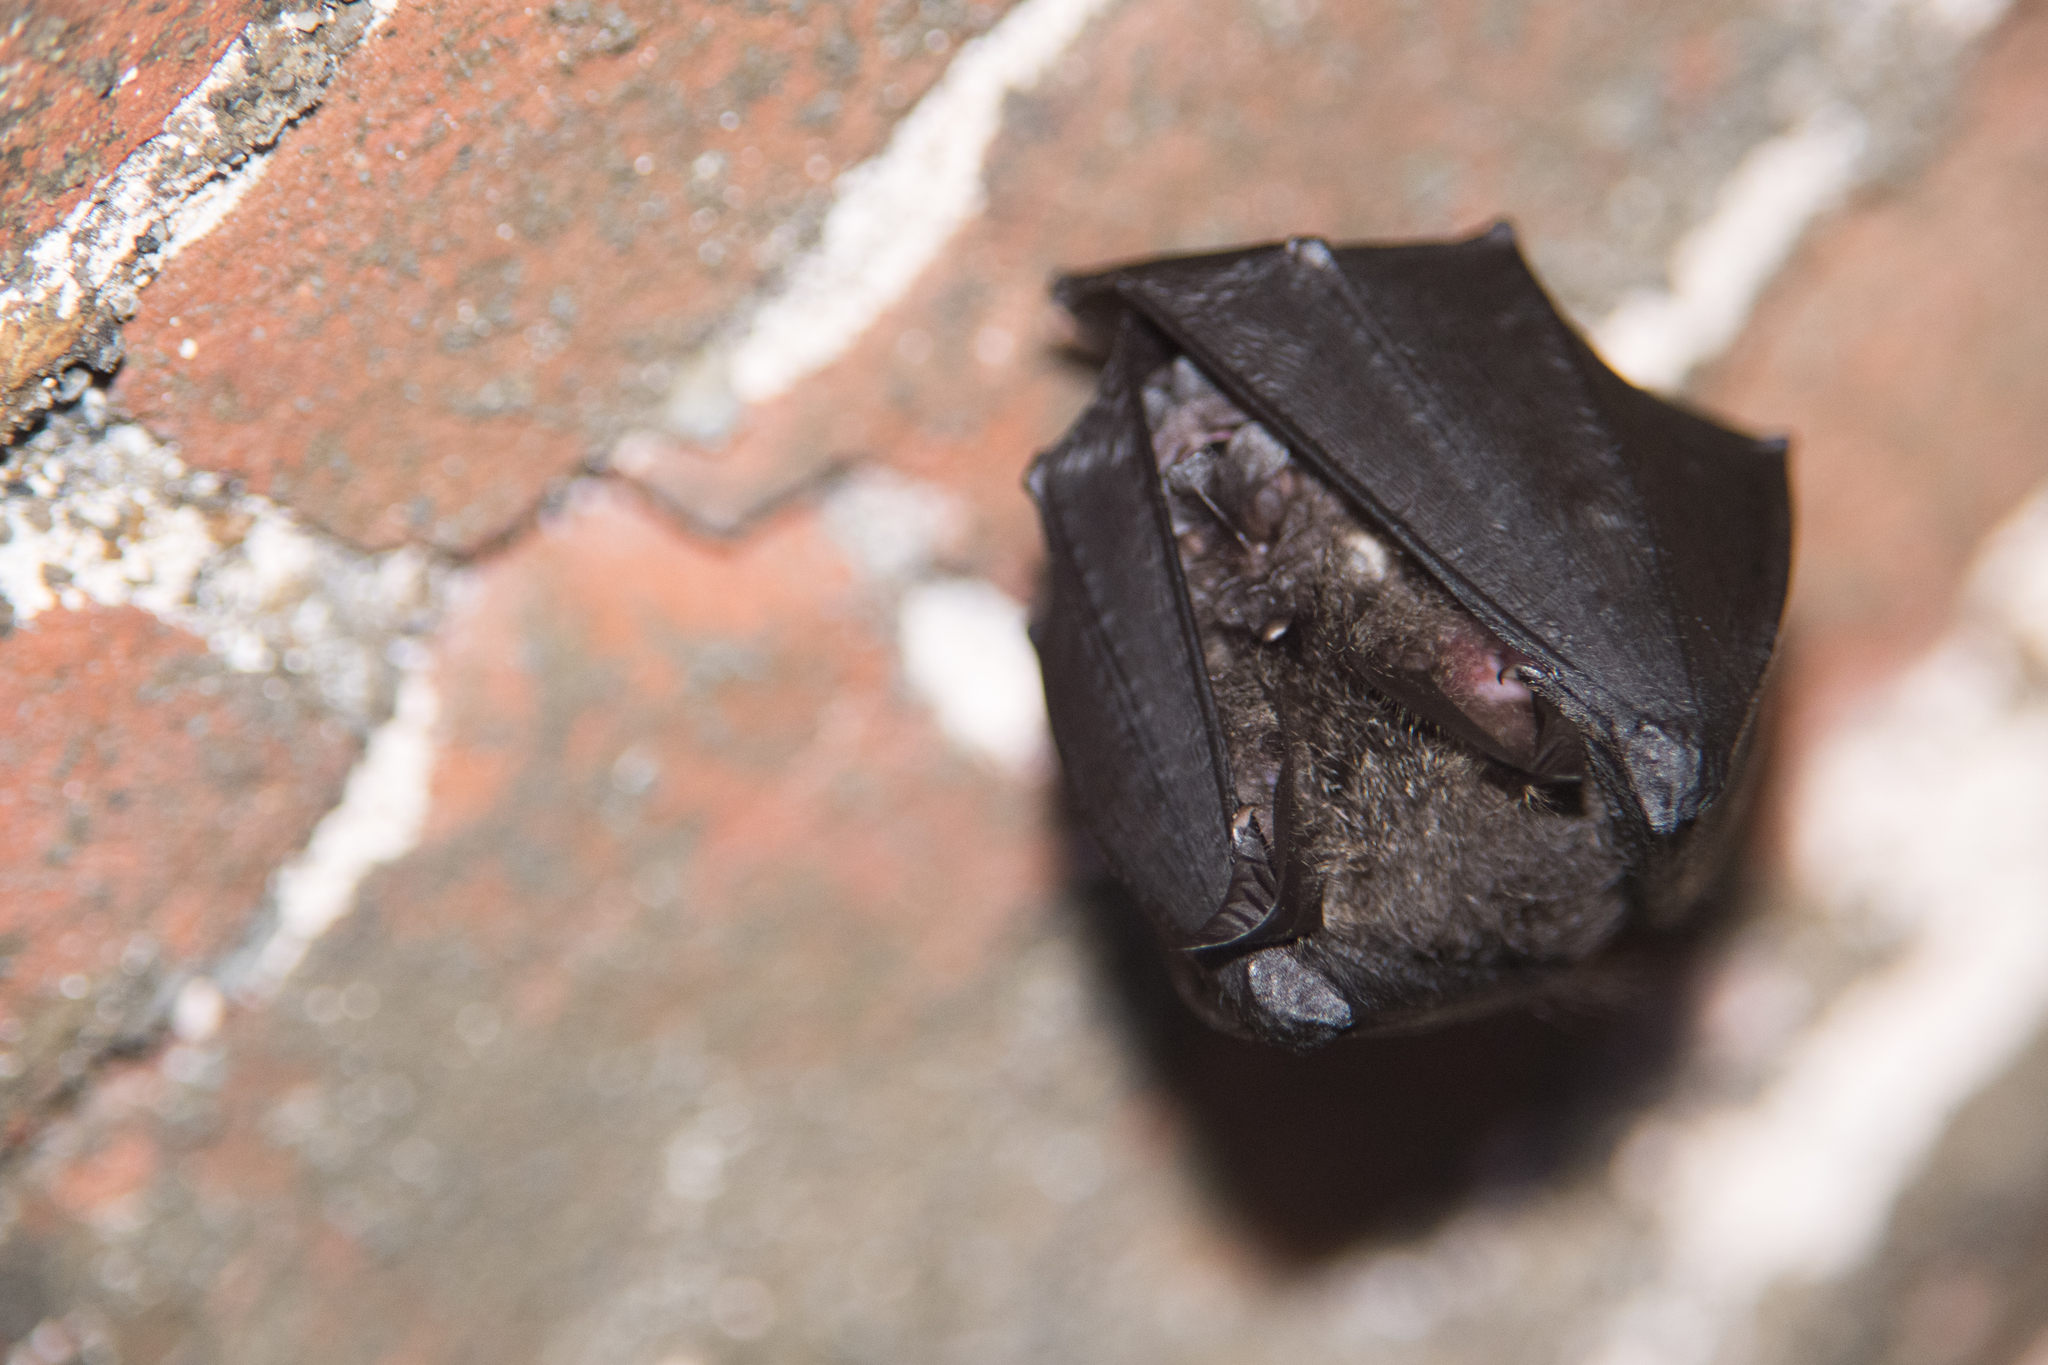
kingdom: Animalia
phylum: Chordata
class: Mammalia
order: Chiroptera
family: Rhinolophidae
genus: Rhinolophus
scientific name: Rhinolophus formosae
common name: Formosan woolly horseshoe bat
